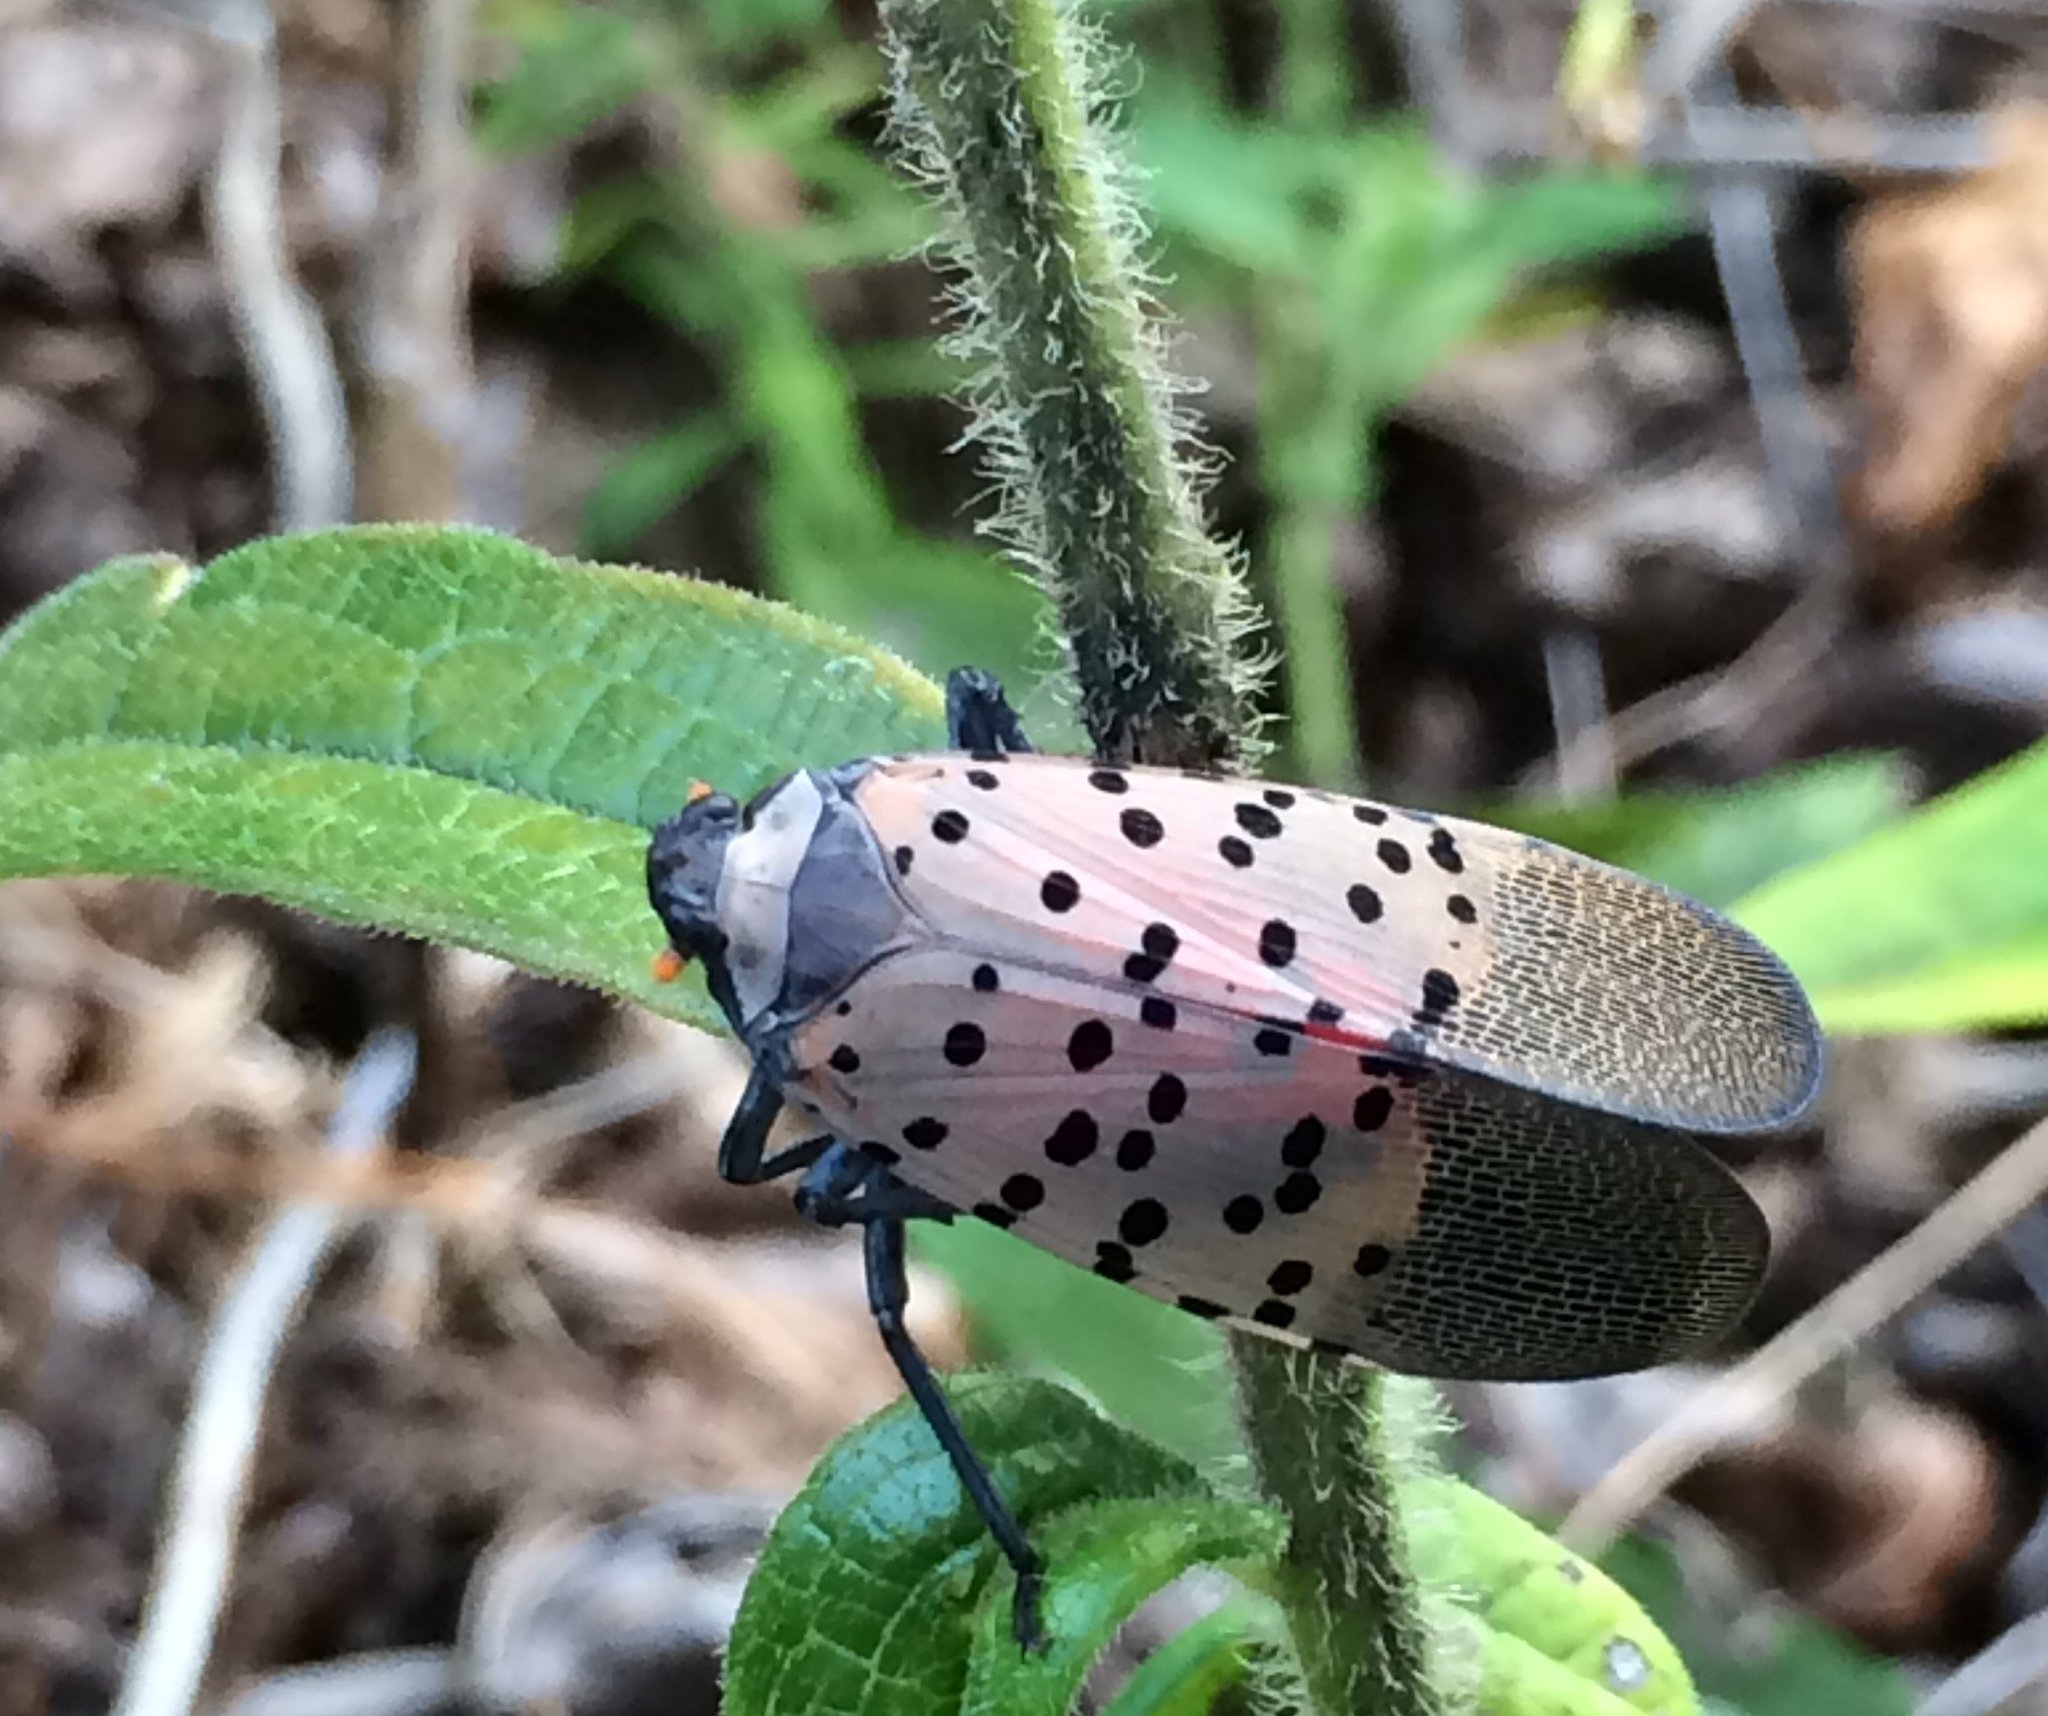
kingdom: Animalia
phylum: Arthropoda
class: Insecta
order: Hemiptera
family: Fulgoridae
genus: Lycorma
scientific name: Lycorma delicatula
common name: Spotted lanternfly
